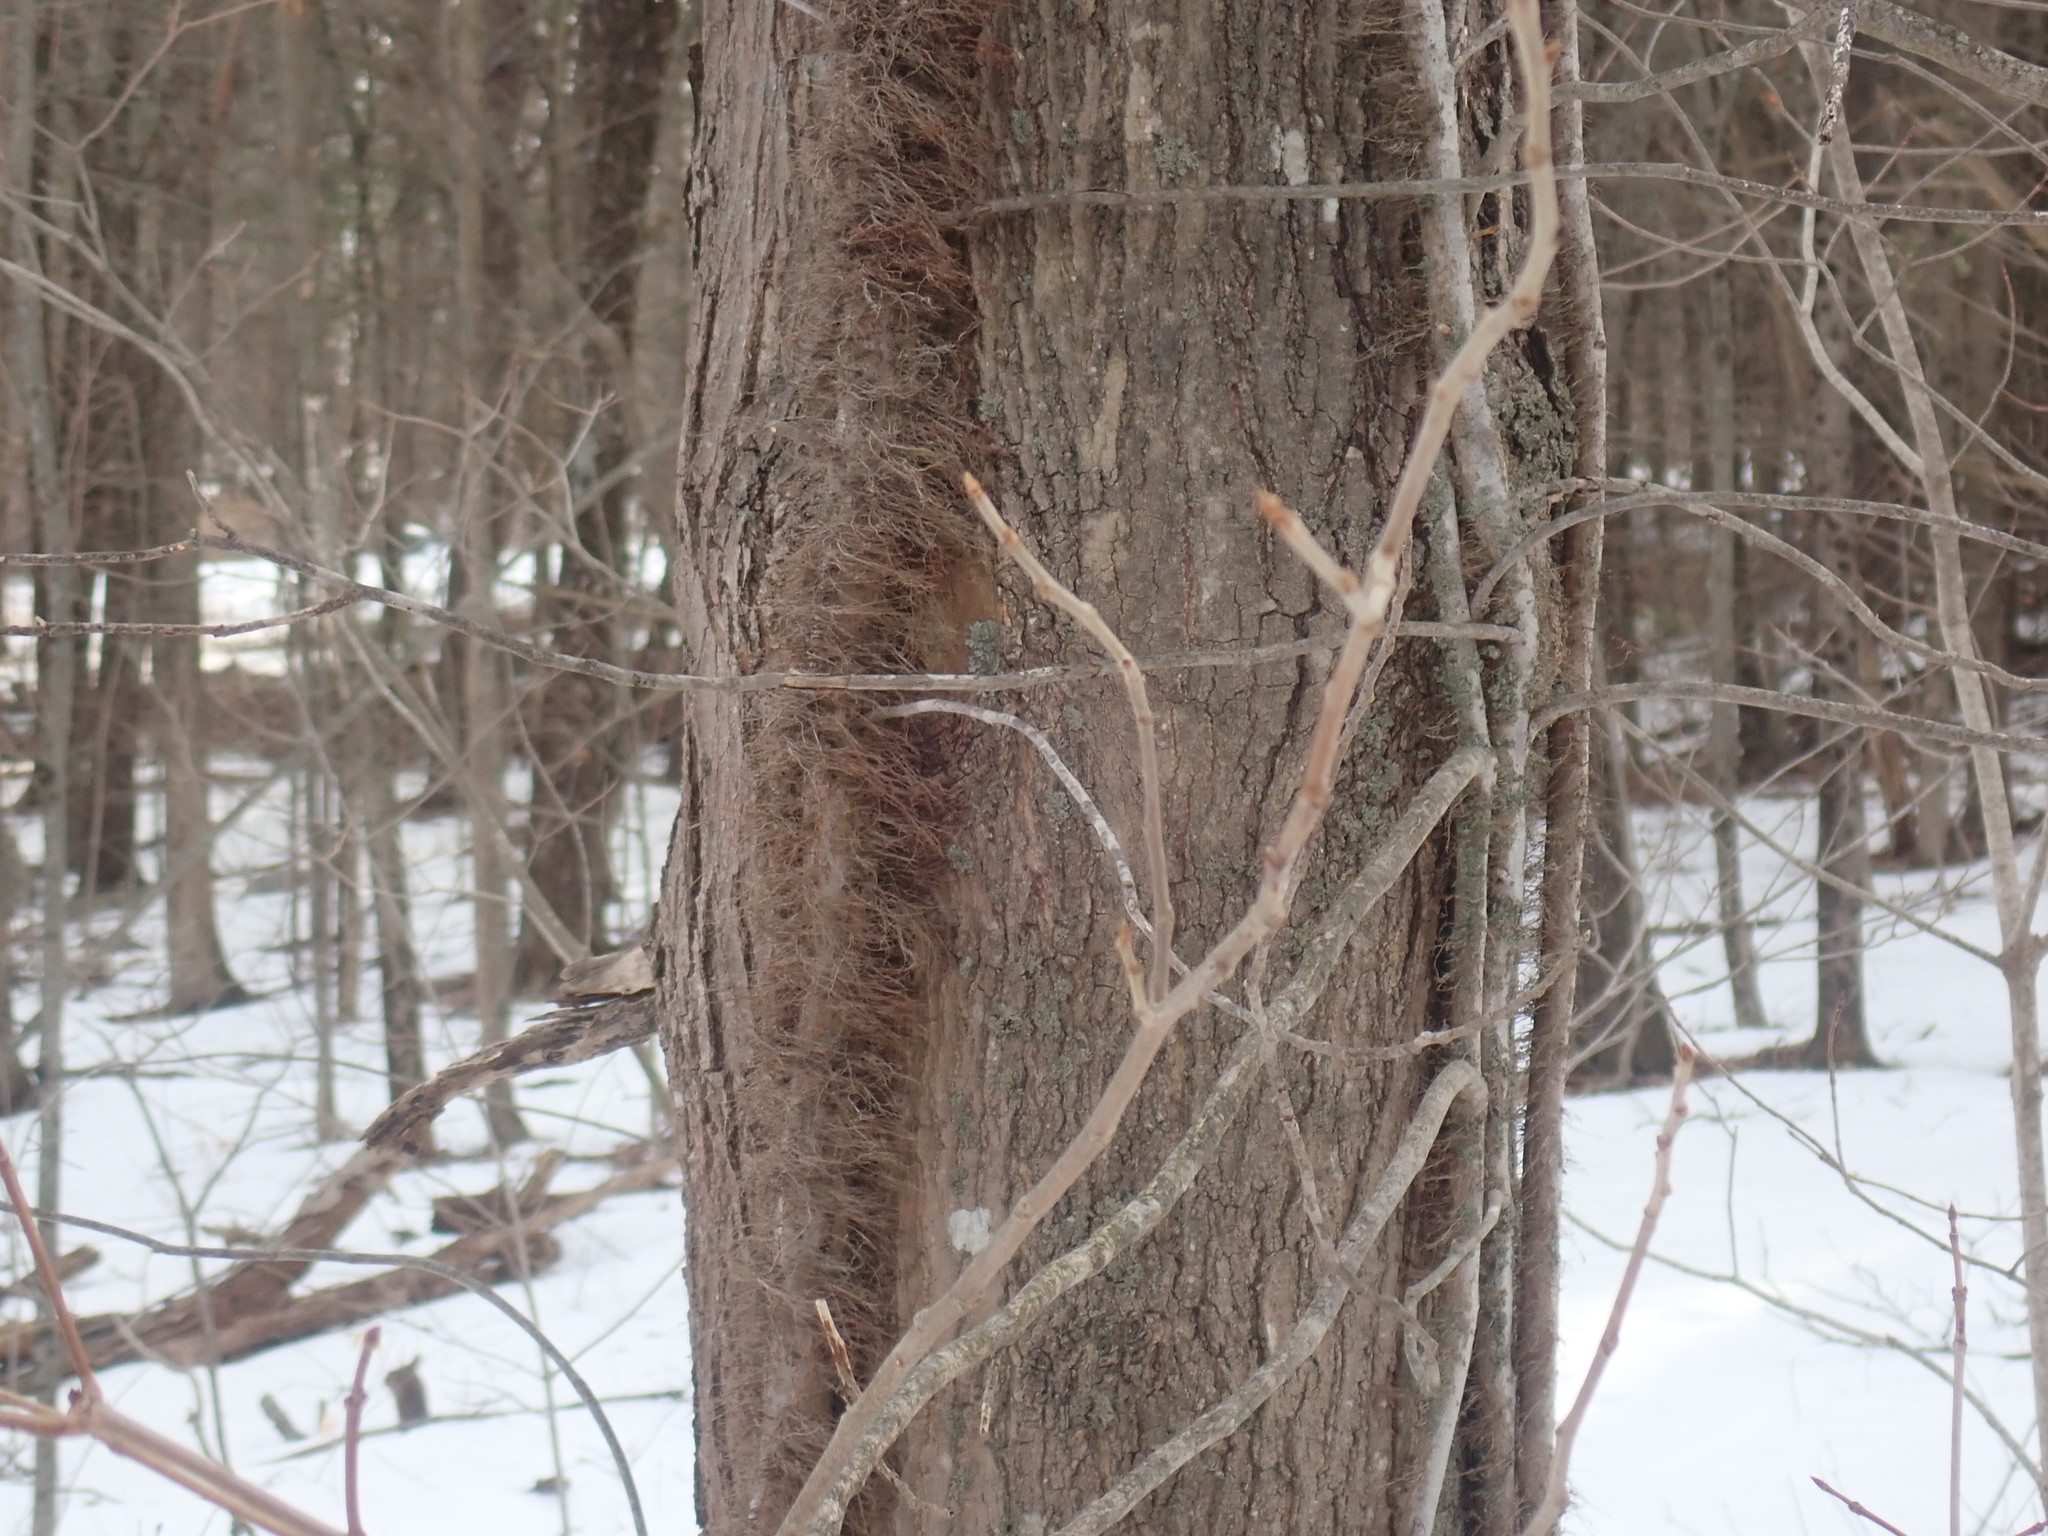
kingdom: Plantae
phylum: Tracheophyta
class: Magnoliopsida
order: Sapindales
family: Anacardiaceae
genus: Toxicodendron
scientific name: Toxicodendron radicans
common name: Poison ivy
